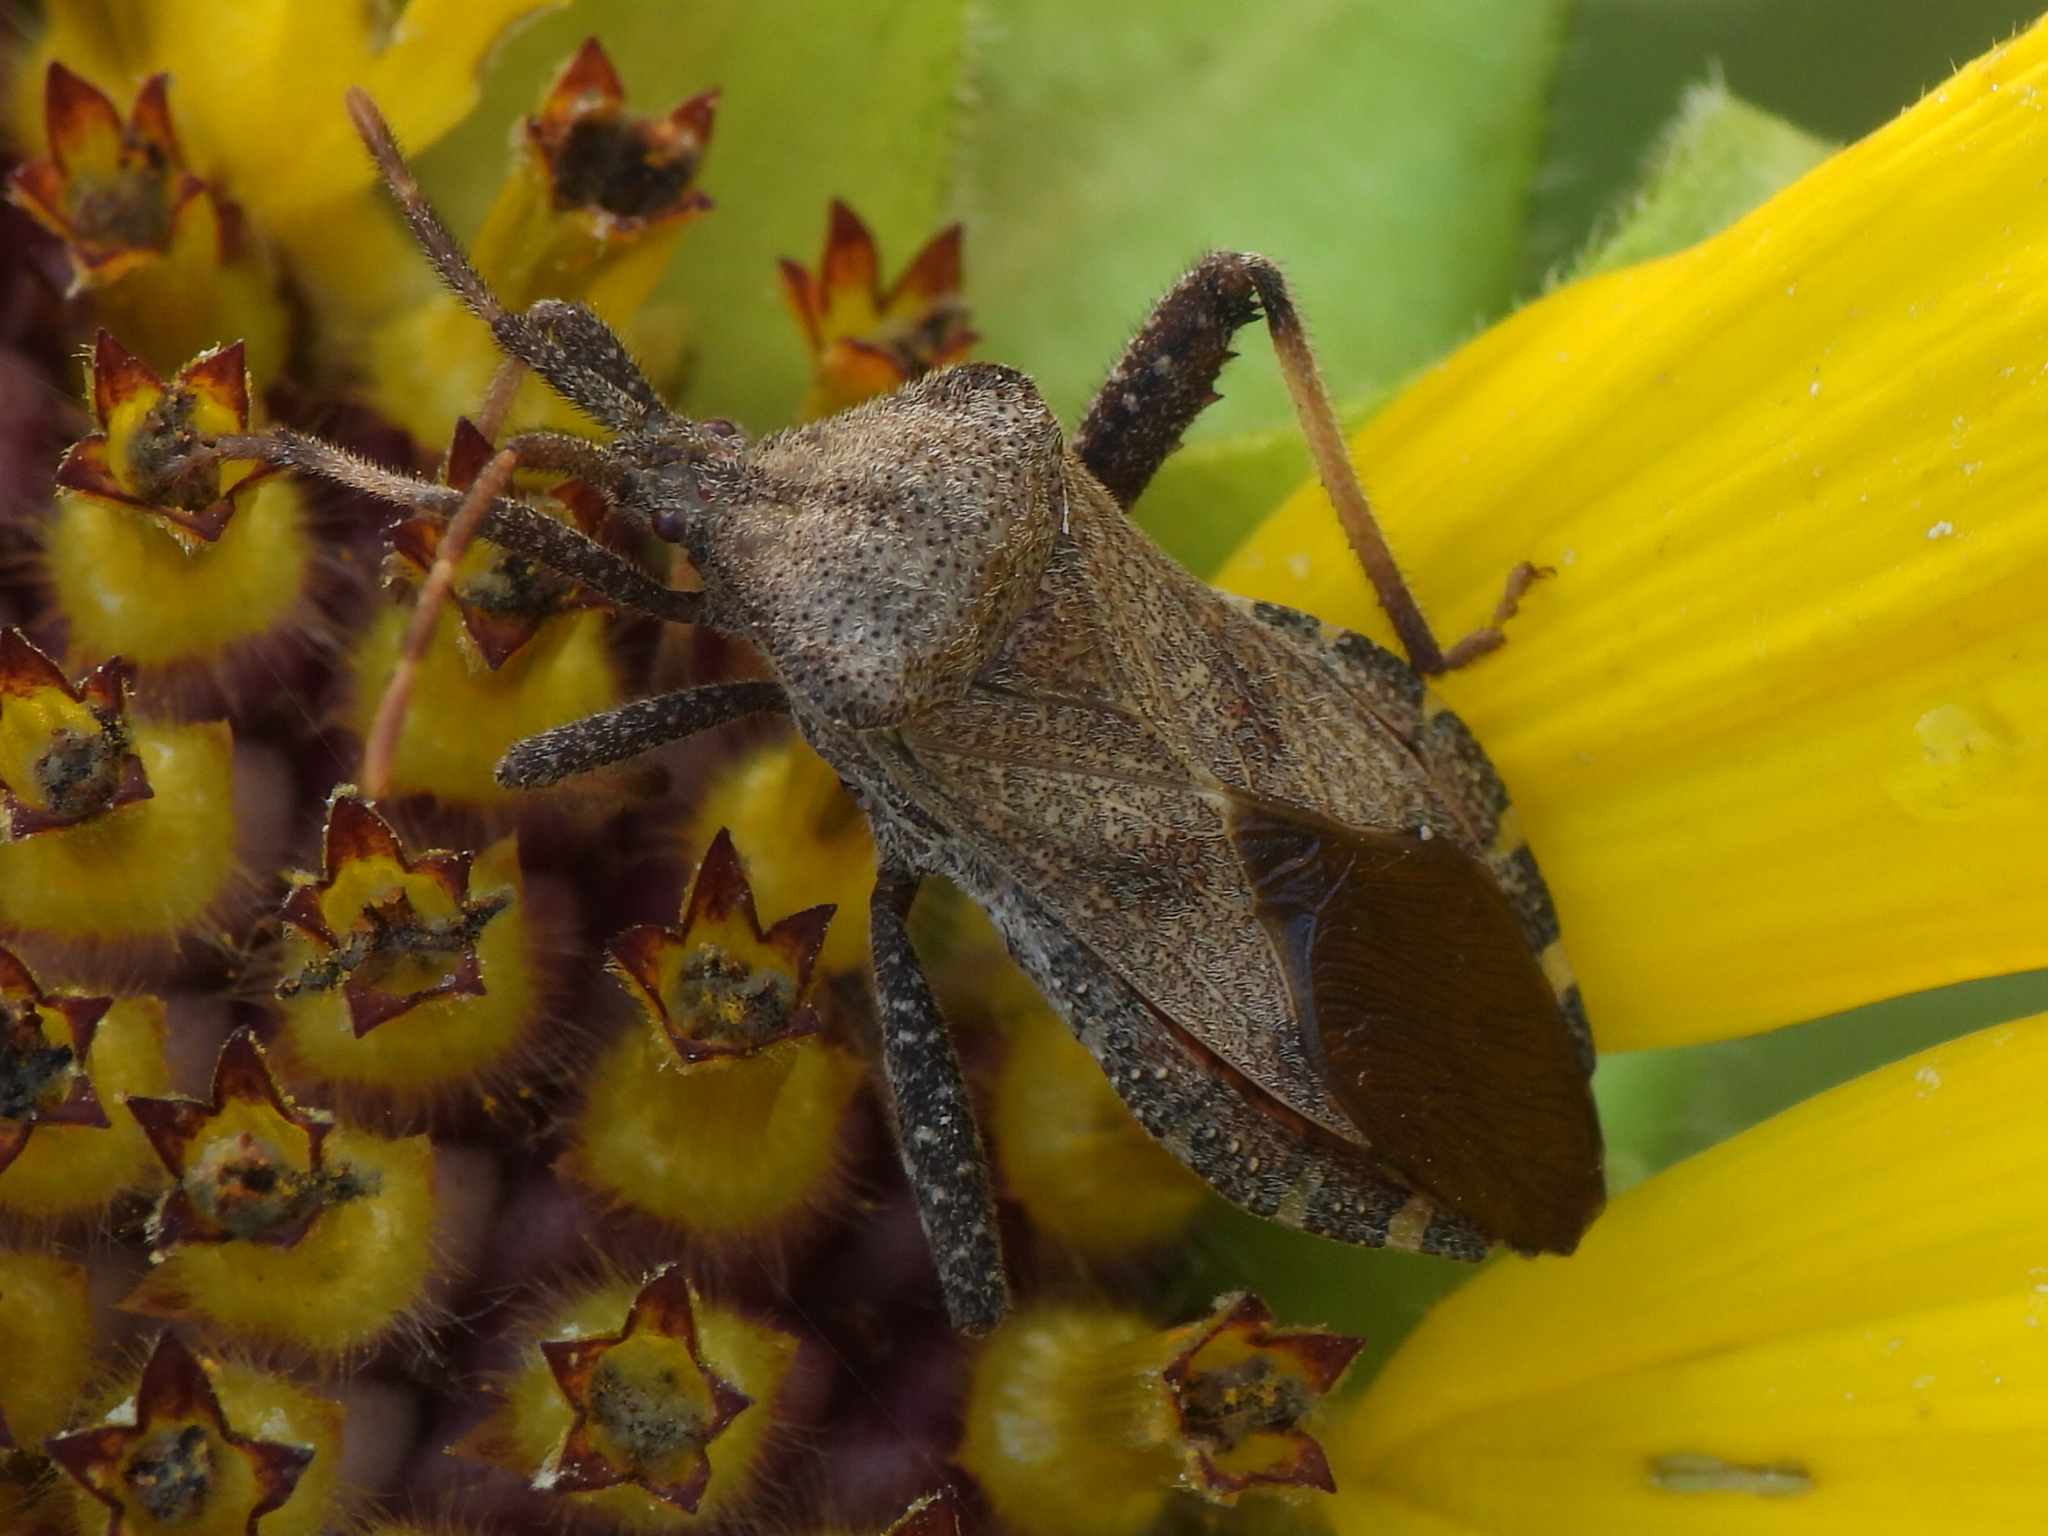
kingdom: Animalia
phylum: Arthropoda
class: Insecta
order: Hemiptera
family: Coreidae
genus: Piezogaster
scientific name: Piezogaster calcarator
